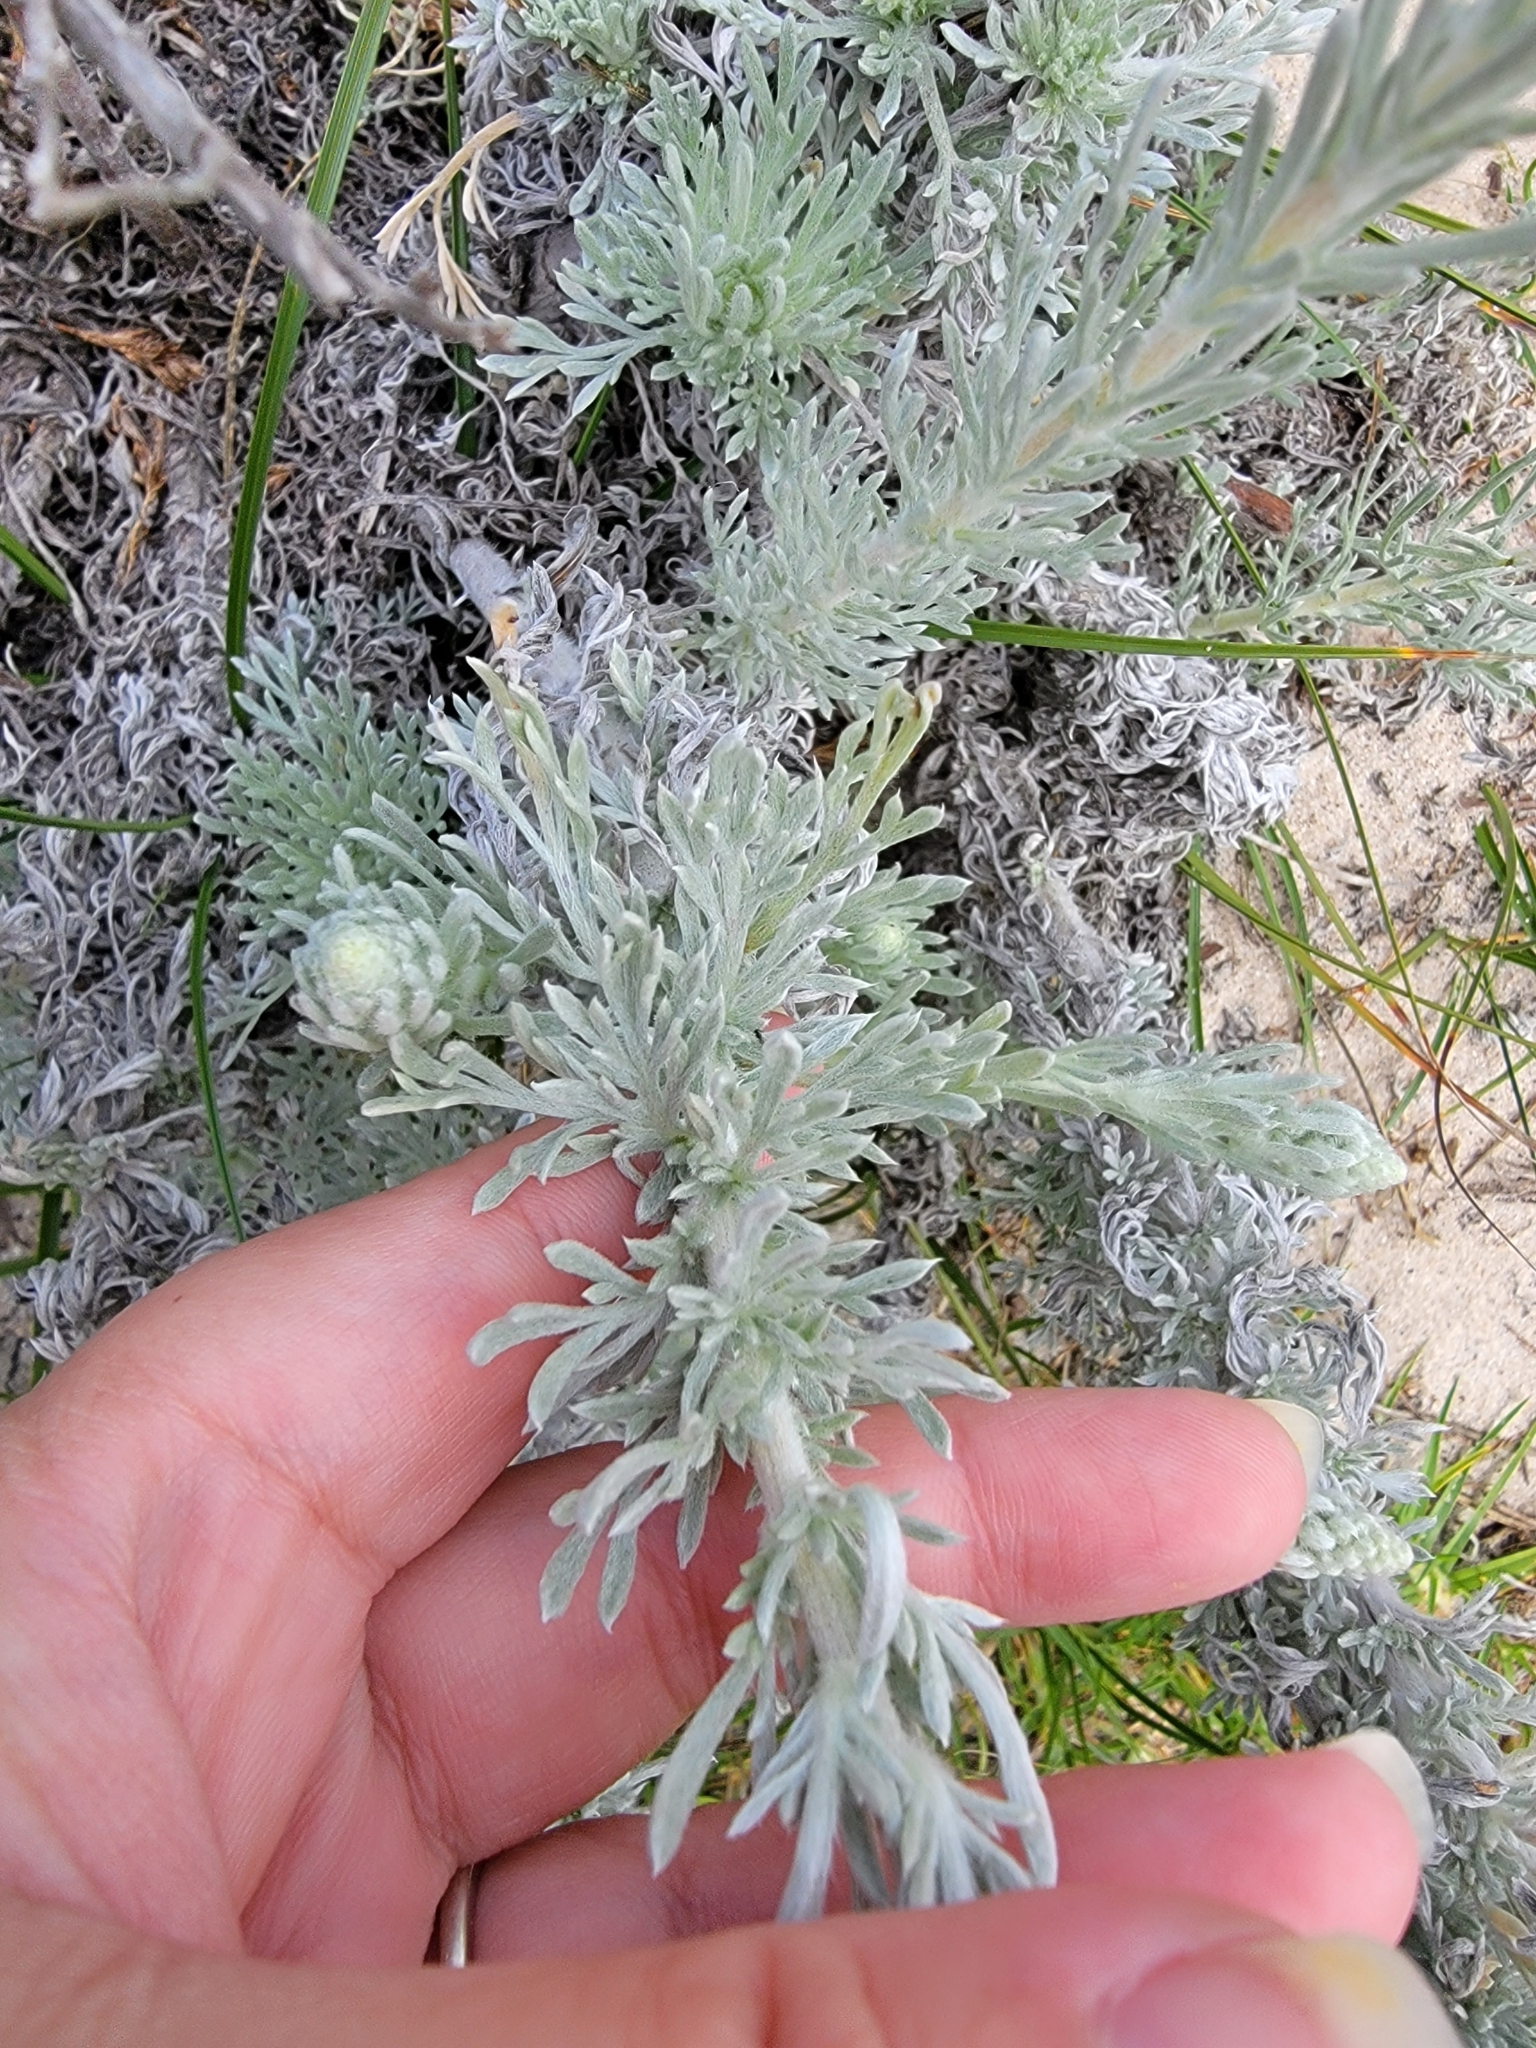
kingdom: Plantae
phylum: Tracheophyta
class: Magnoliopsida
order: Asterales
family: Asteraceae
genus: Artemisia
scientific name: Artemisia pycnocephala
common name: Coastal sagewort
